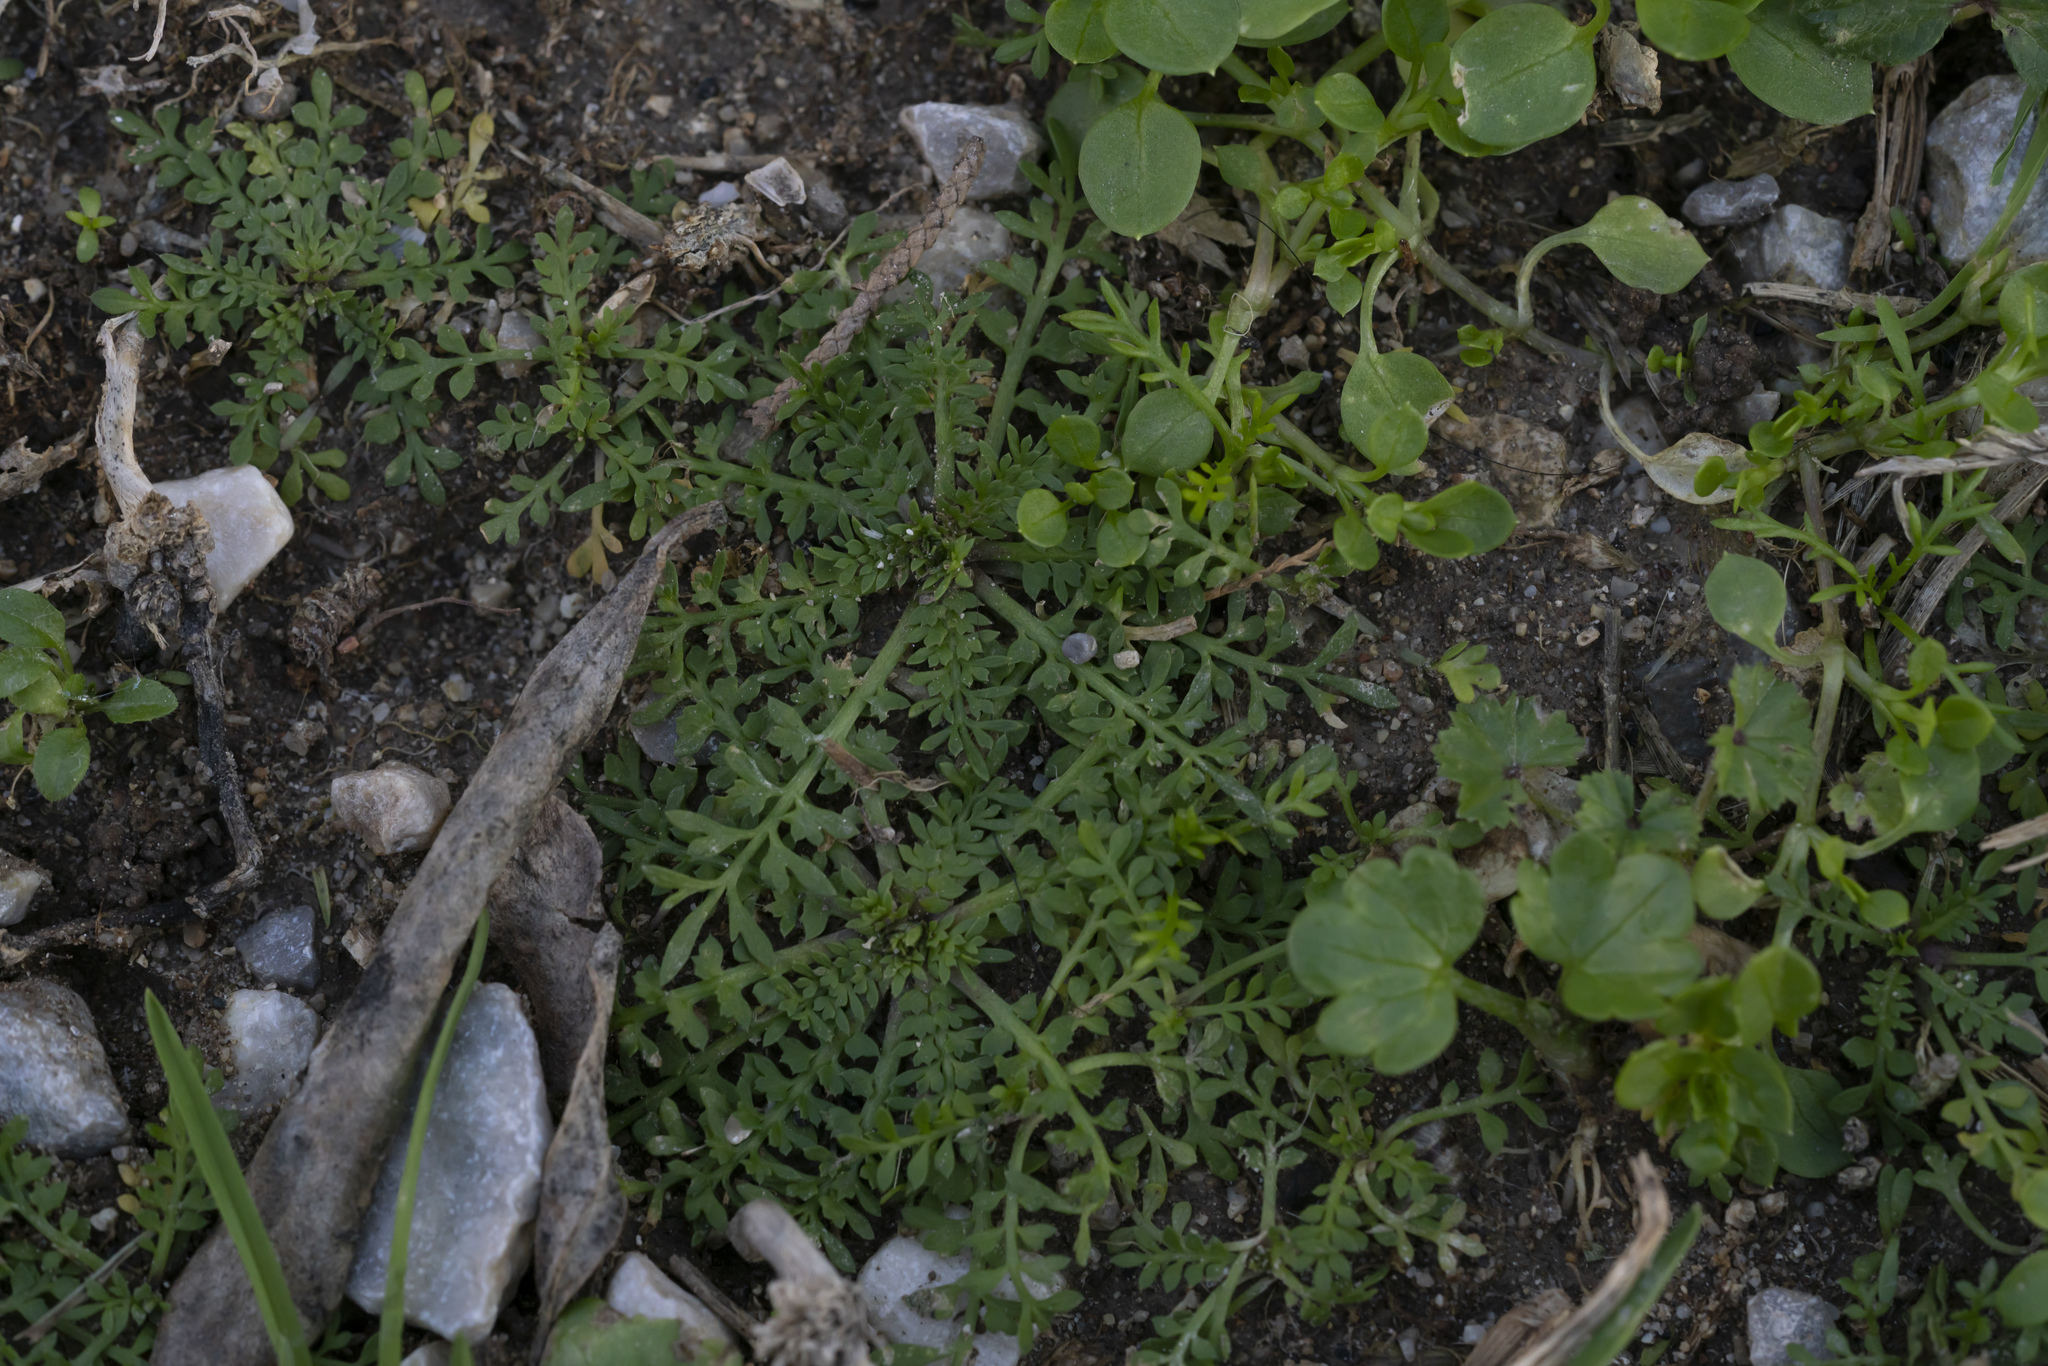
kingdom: Plantae
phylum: Tracheophyta
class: Magnoliopsida
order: Brassicales
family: Brassicaceae
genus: Lepidium
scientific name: Lepidium
